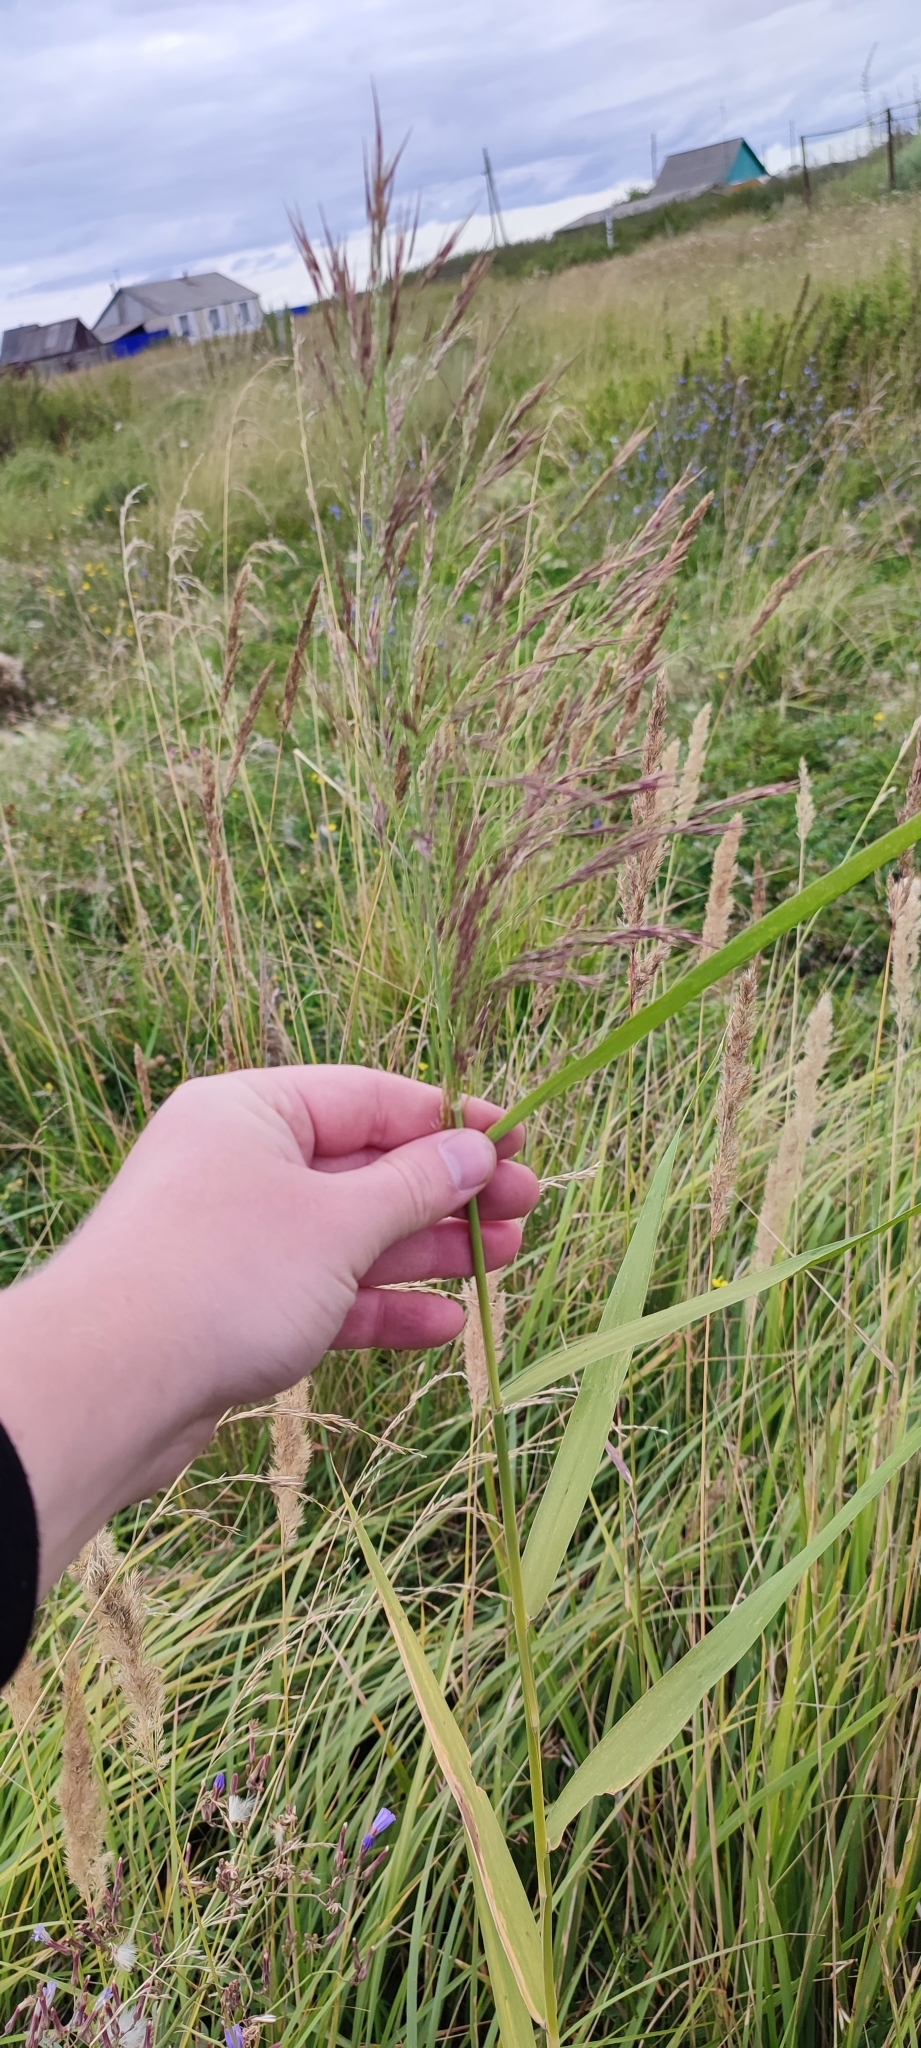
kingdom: Plantae
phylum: Tracheophyta
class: Liliopsida
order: Poales
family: Poaceae
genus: Phragmites
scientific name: Phragmites australis
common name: Common reed
